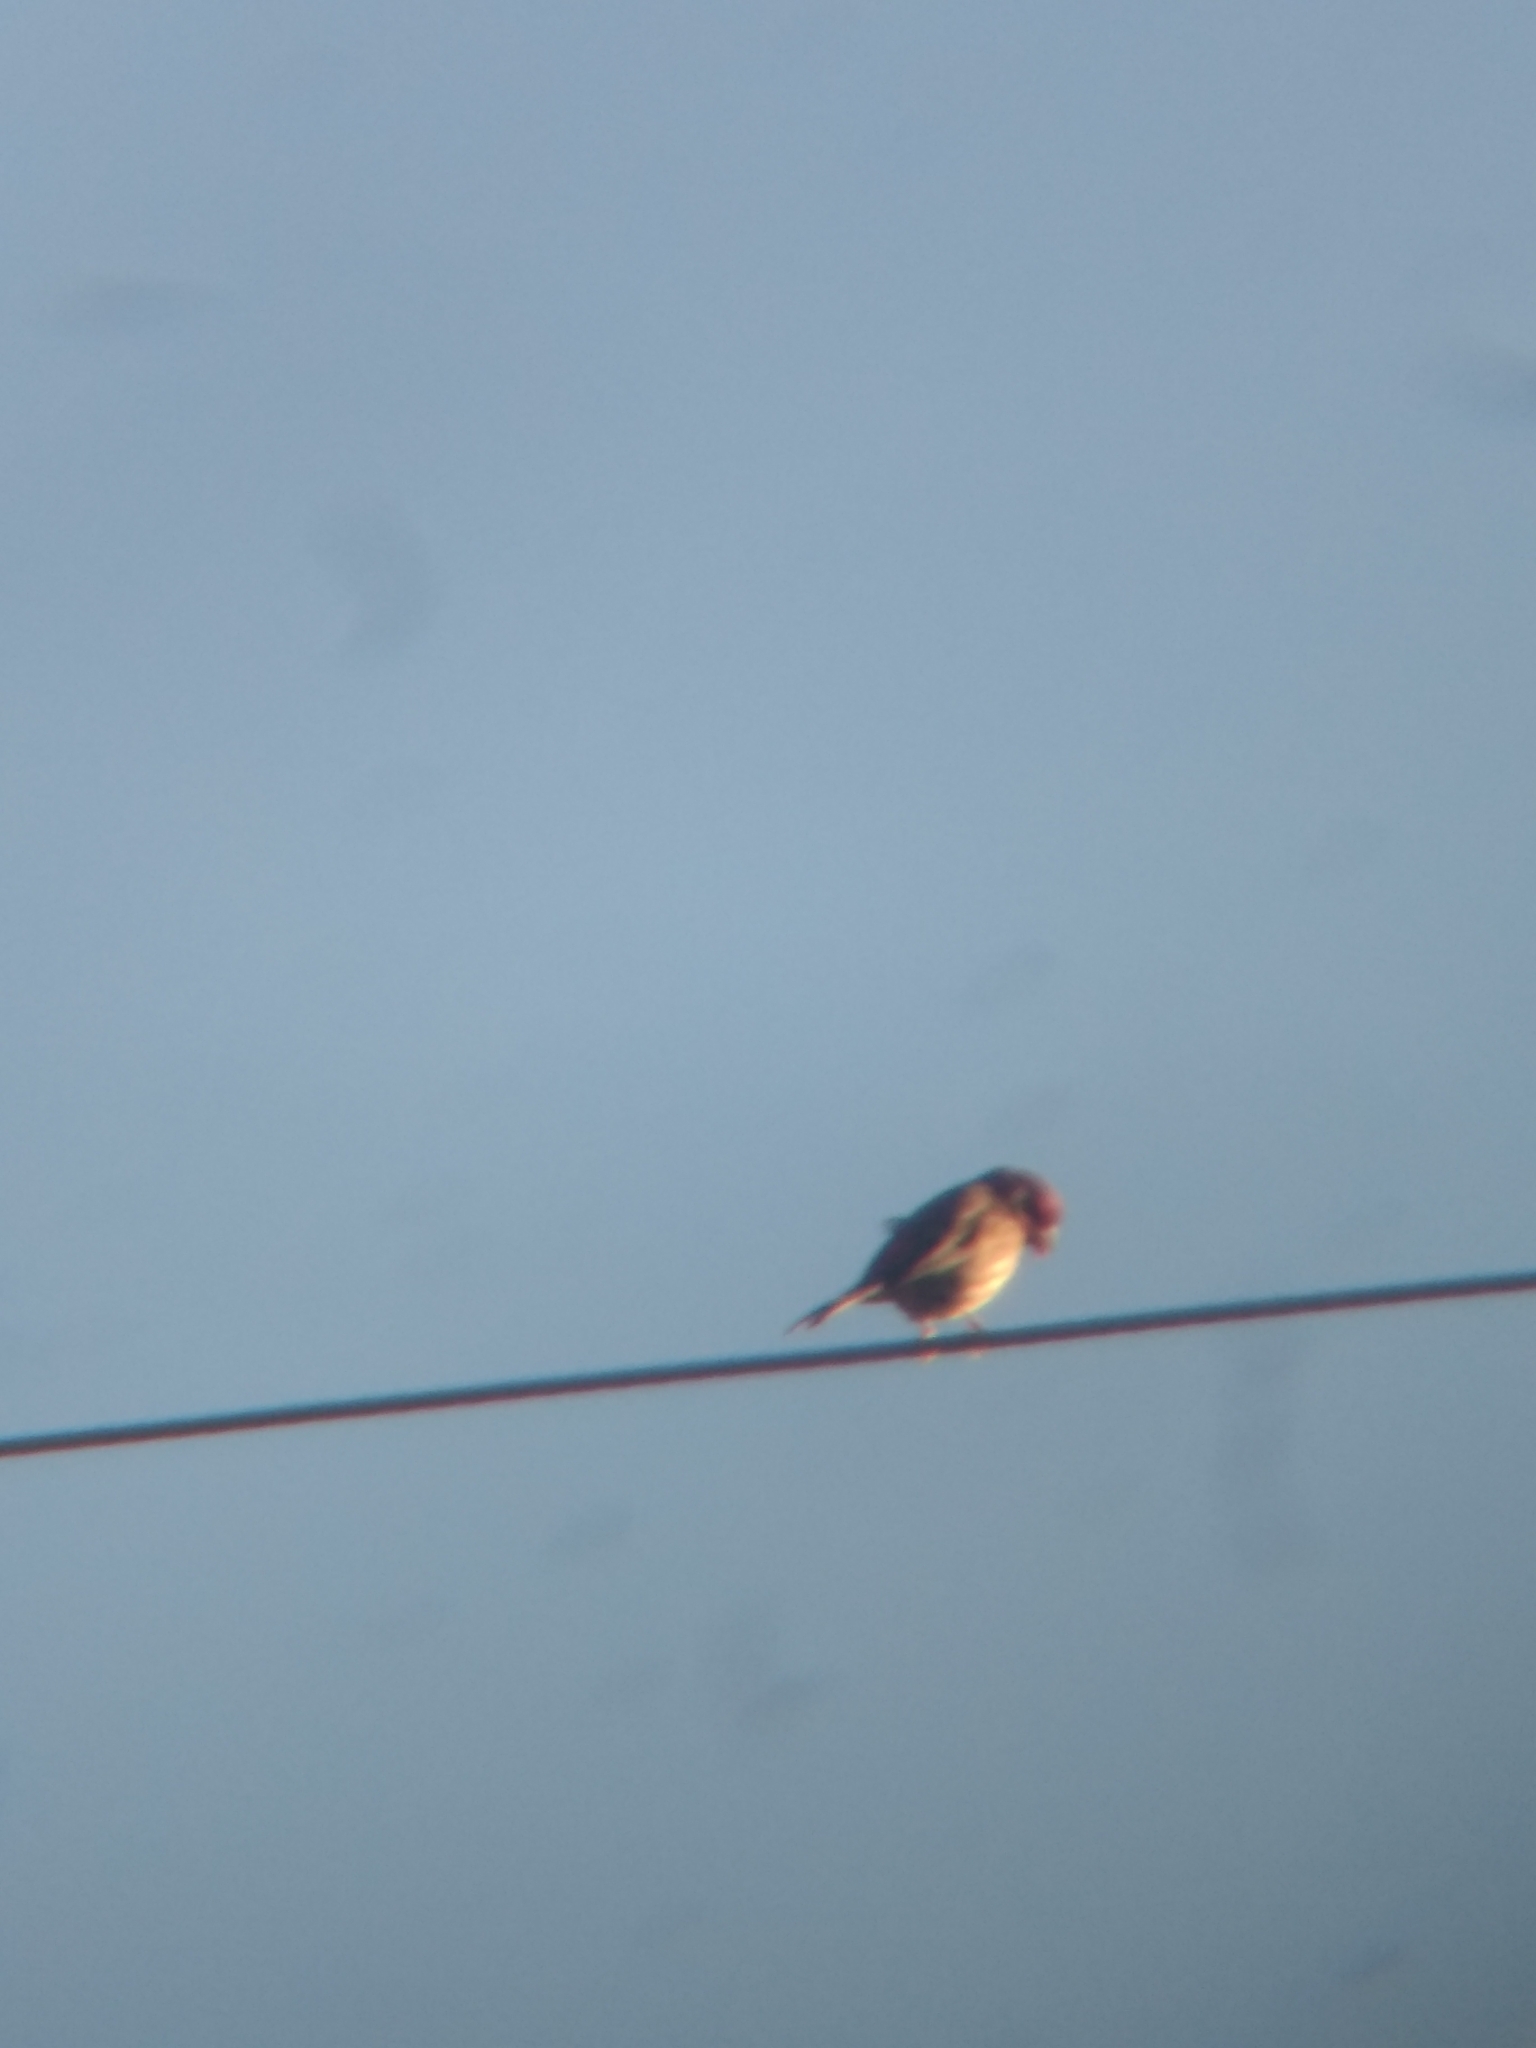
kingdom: Animalia
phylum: Chordata
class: Aves
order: Passeriformes
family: Fringillidae
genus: Haemorhous
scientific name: Haemorhous mexicanus
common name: House finch
